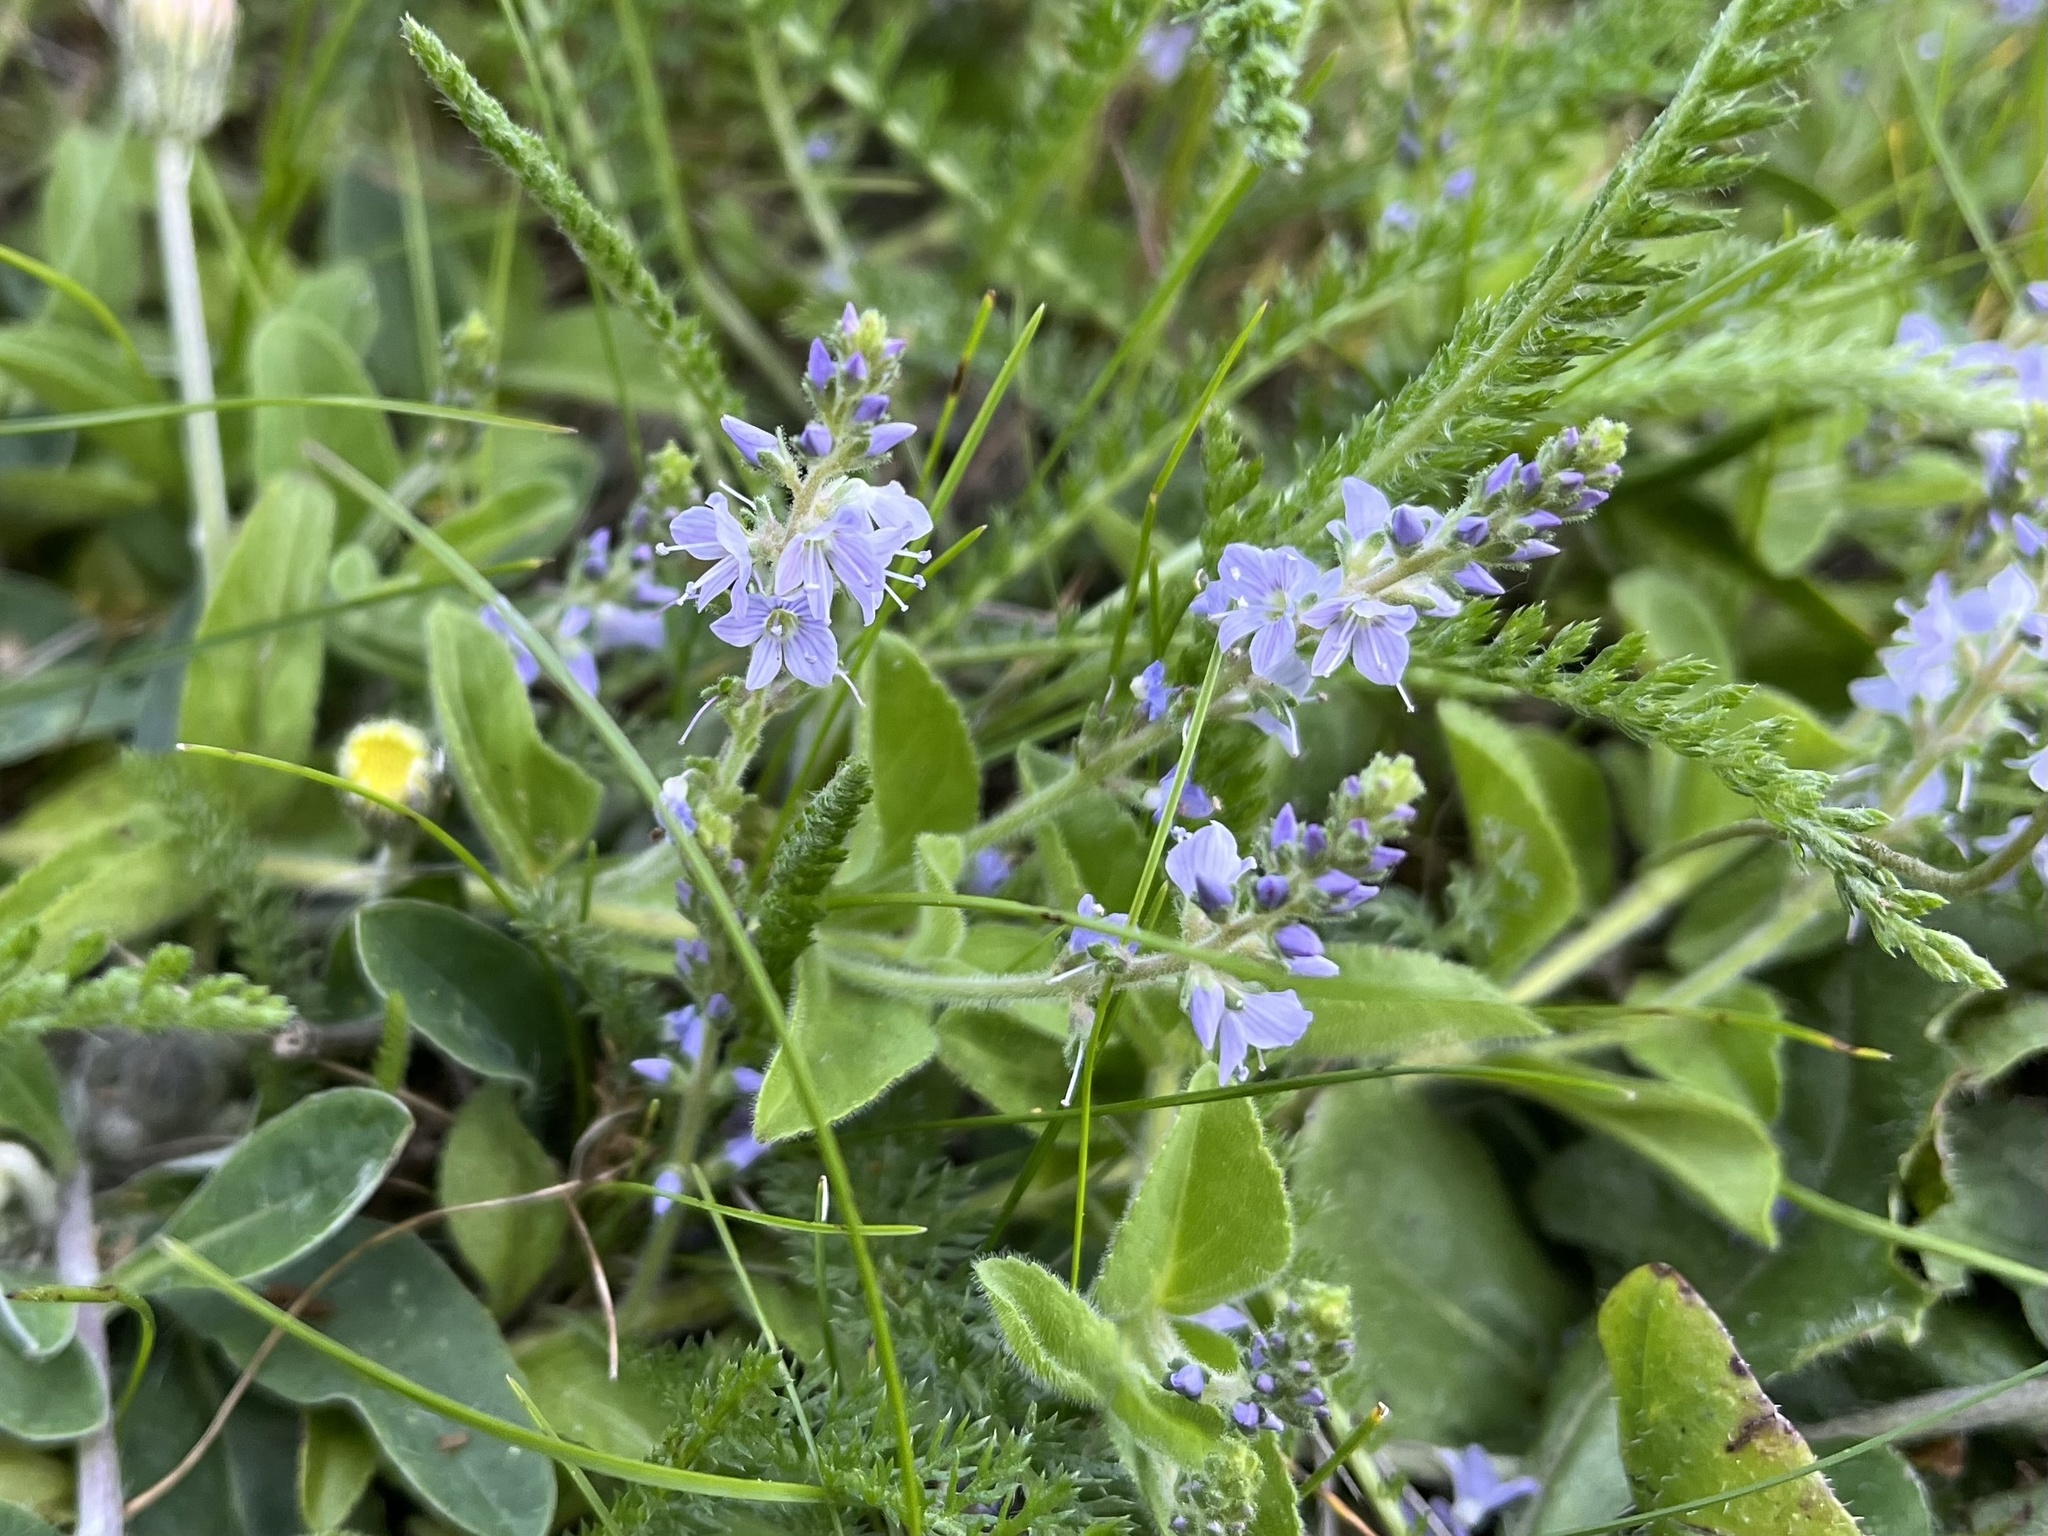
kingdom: Plantae
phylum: Tracheophyta
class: Magnoliopsida
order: Lamiales
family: Plantaginaceae
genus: Veronica
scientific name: Veronica officinalis
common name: Common speedwell
